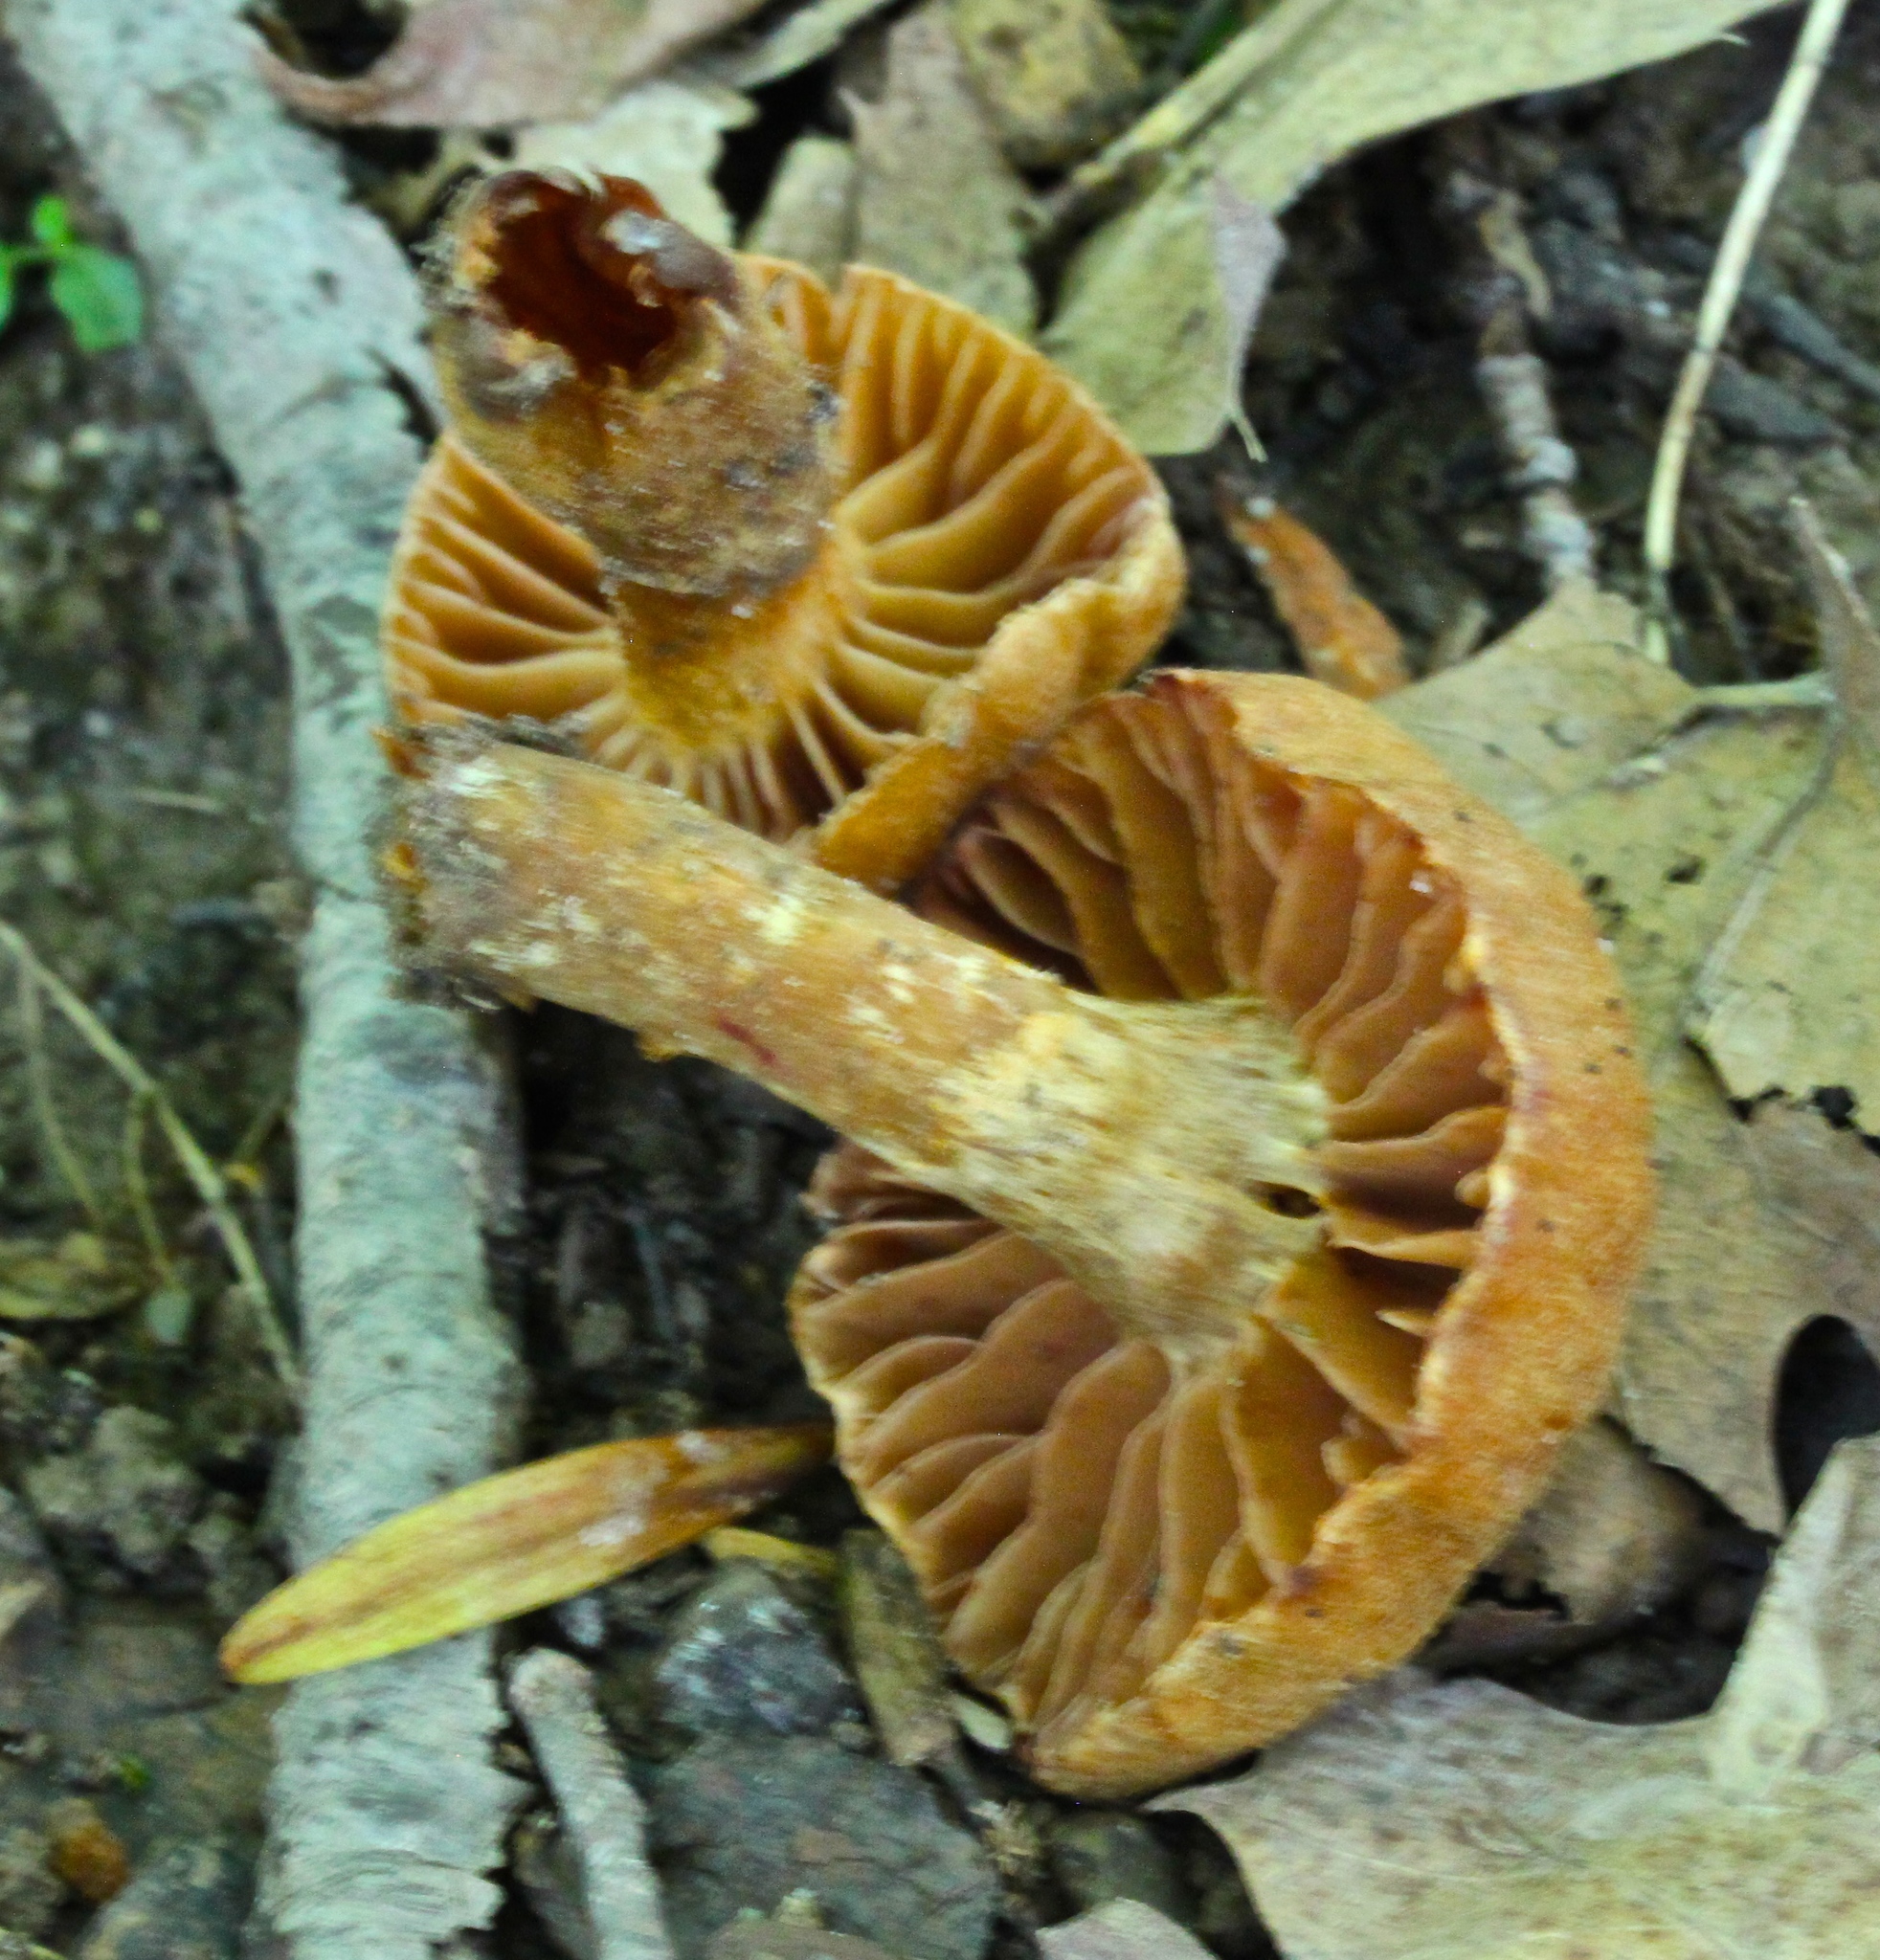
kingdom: Fungi
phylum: Basidiomycota
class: Agaricomycetes
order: Agaricales
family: Cortinariaceae
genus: Cortinarius
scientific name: Cortinarius
